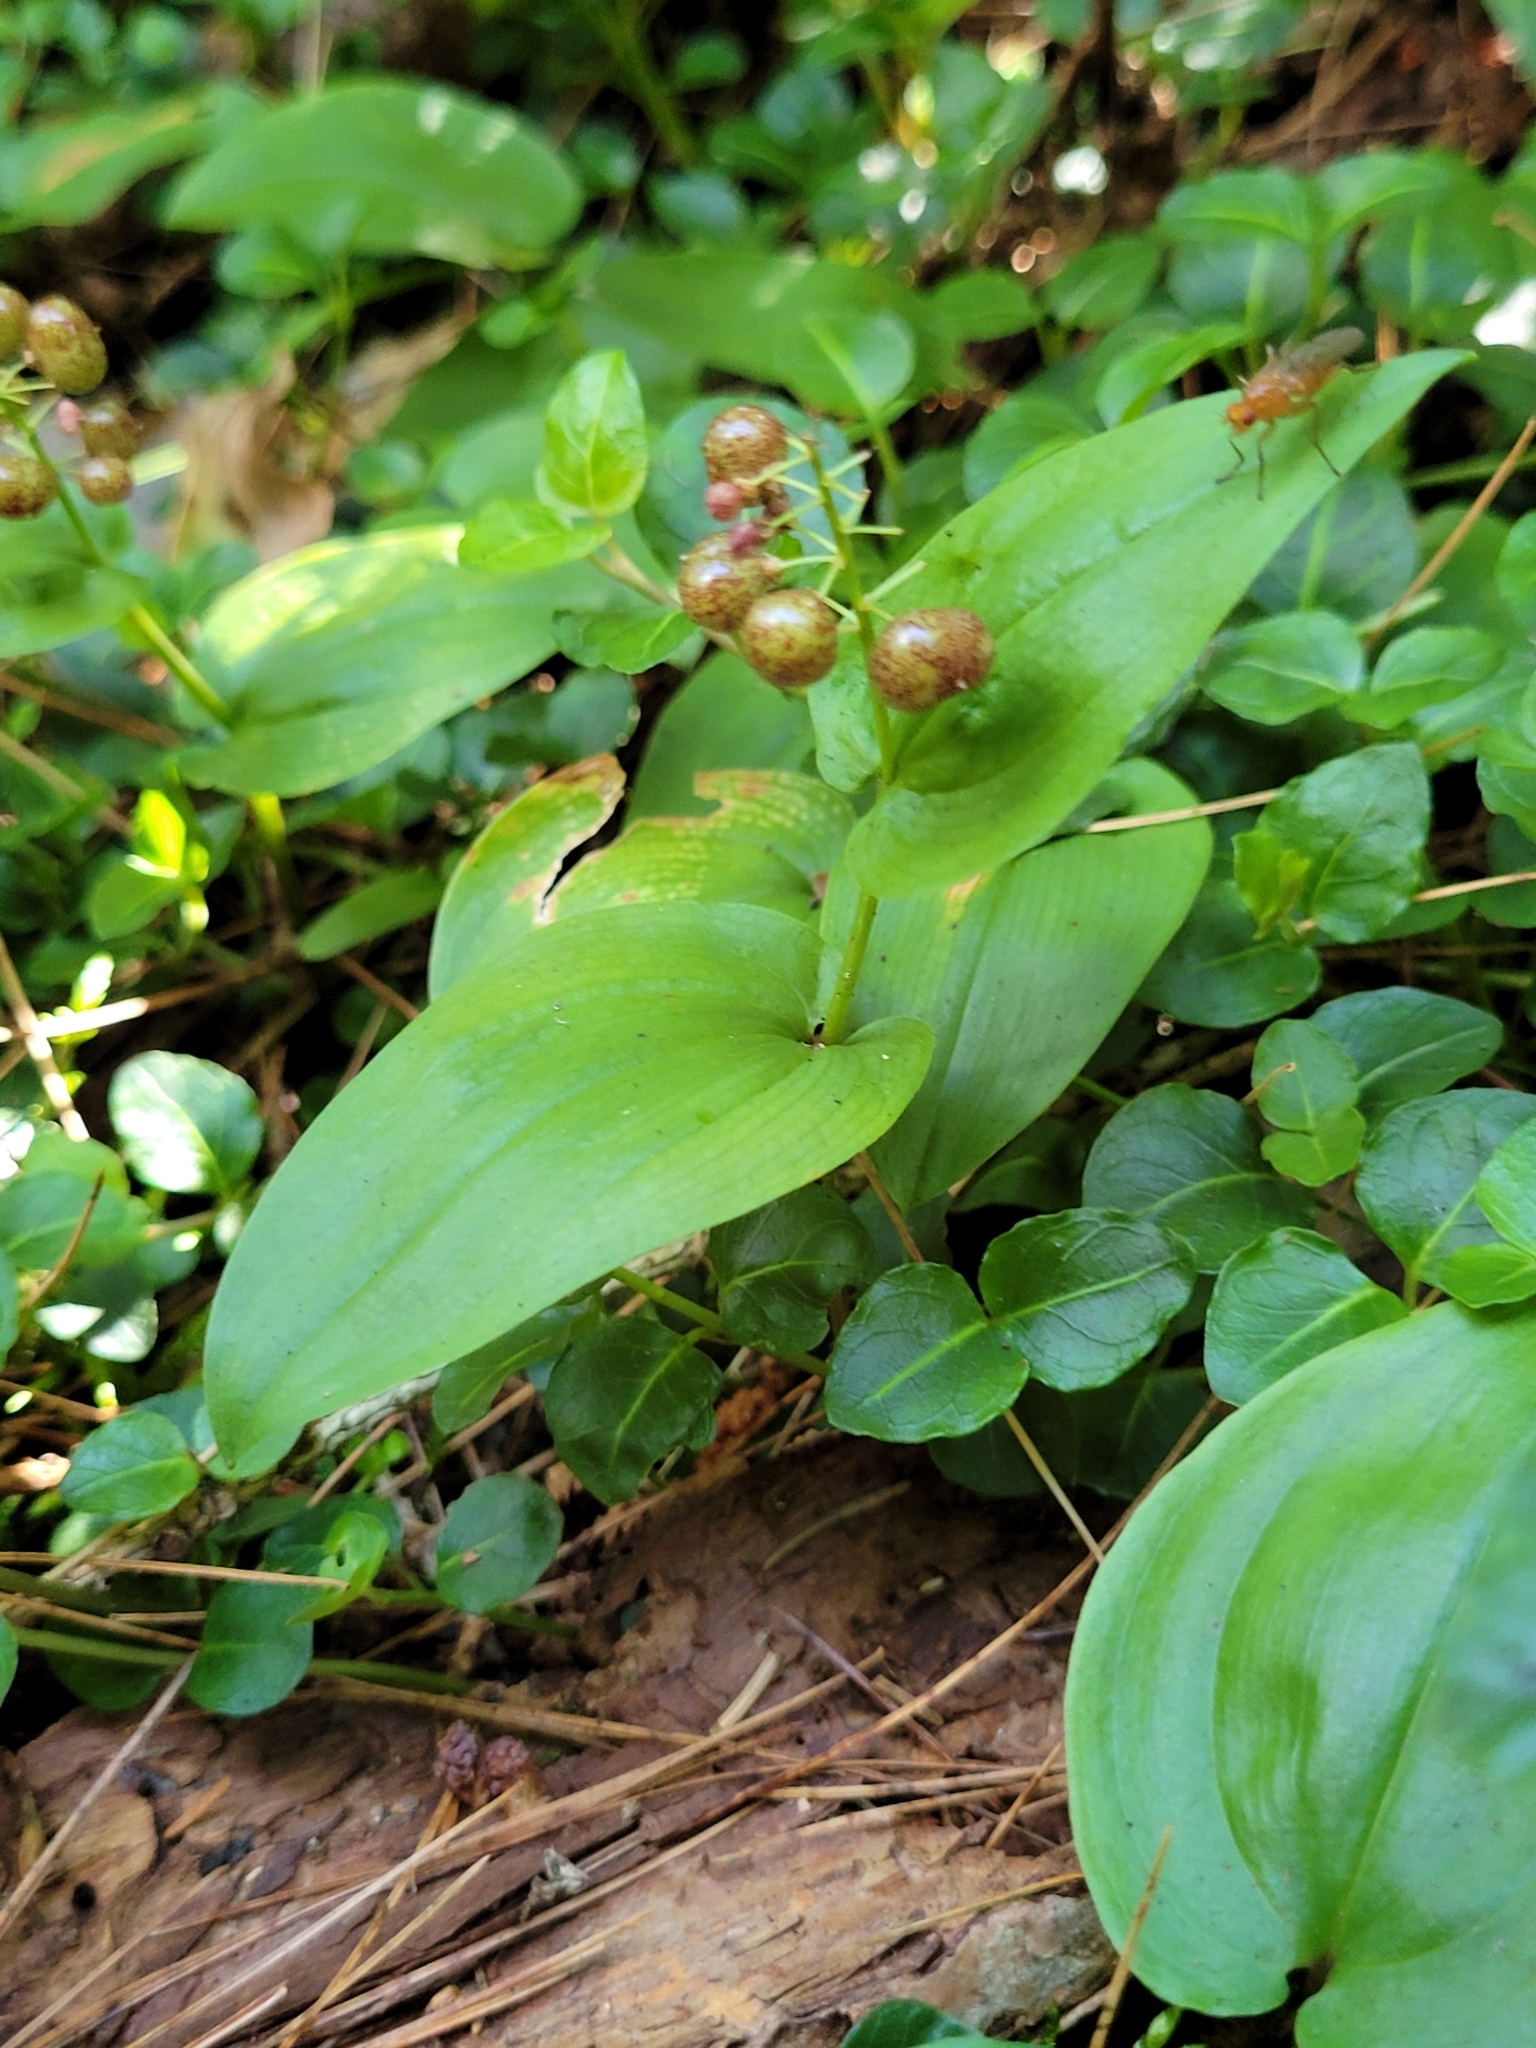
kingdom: Plantae
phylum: Tracheophyta
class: Liliopsida
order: Asparagales
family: Asparagaceae
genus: Maianthemum
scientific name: Maianthemum canadense
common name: False lily-of-the-valley
